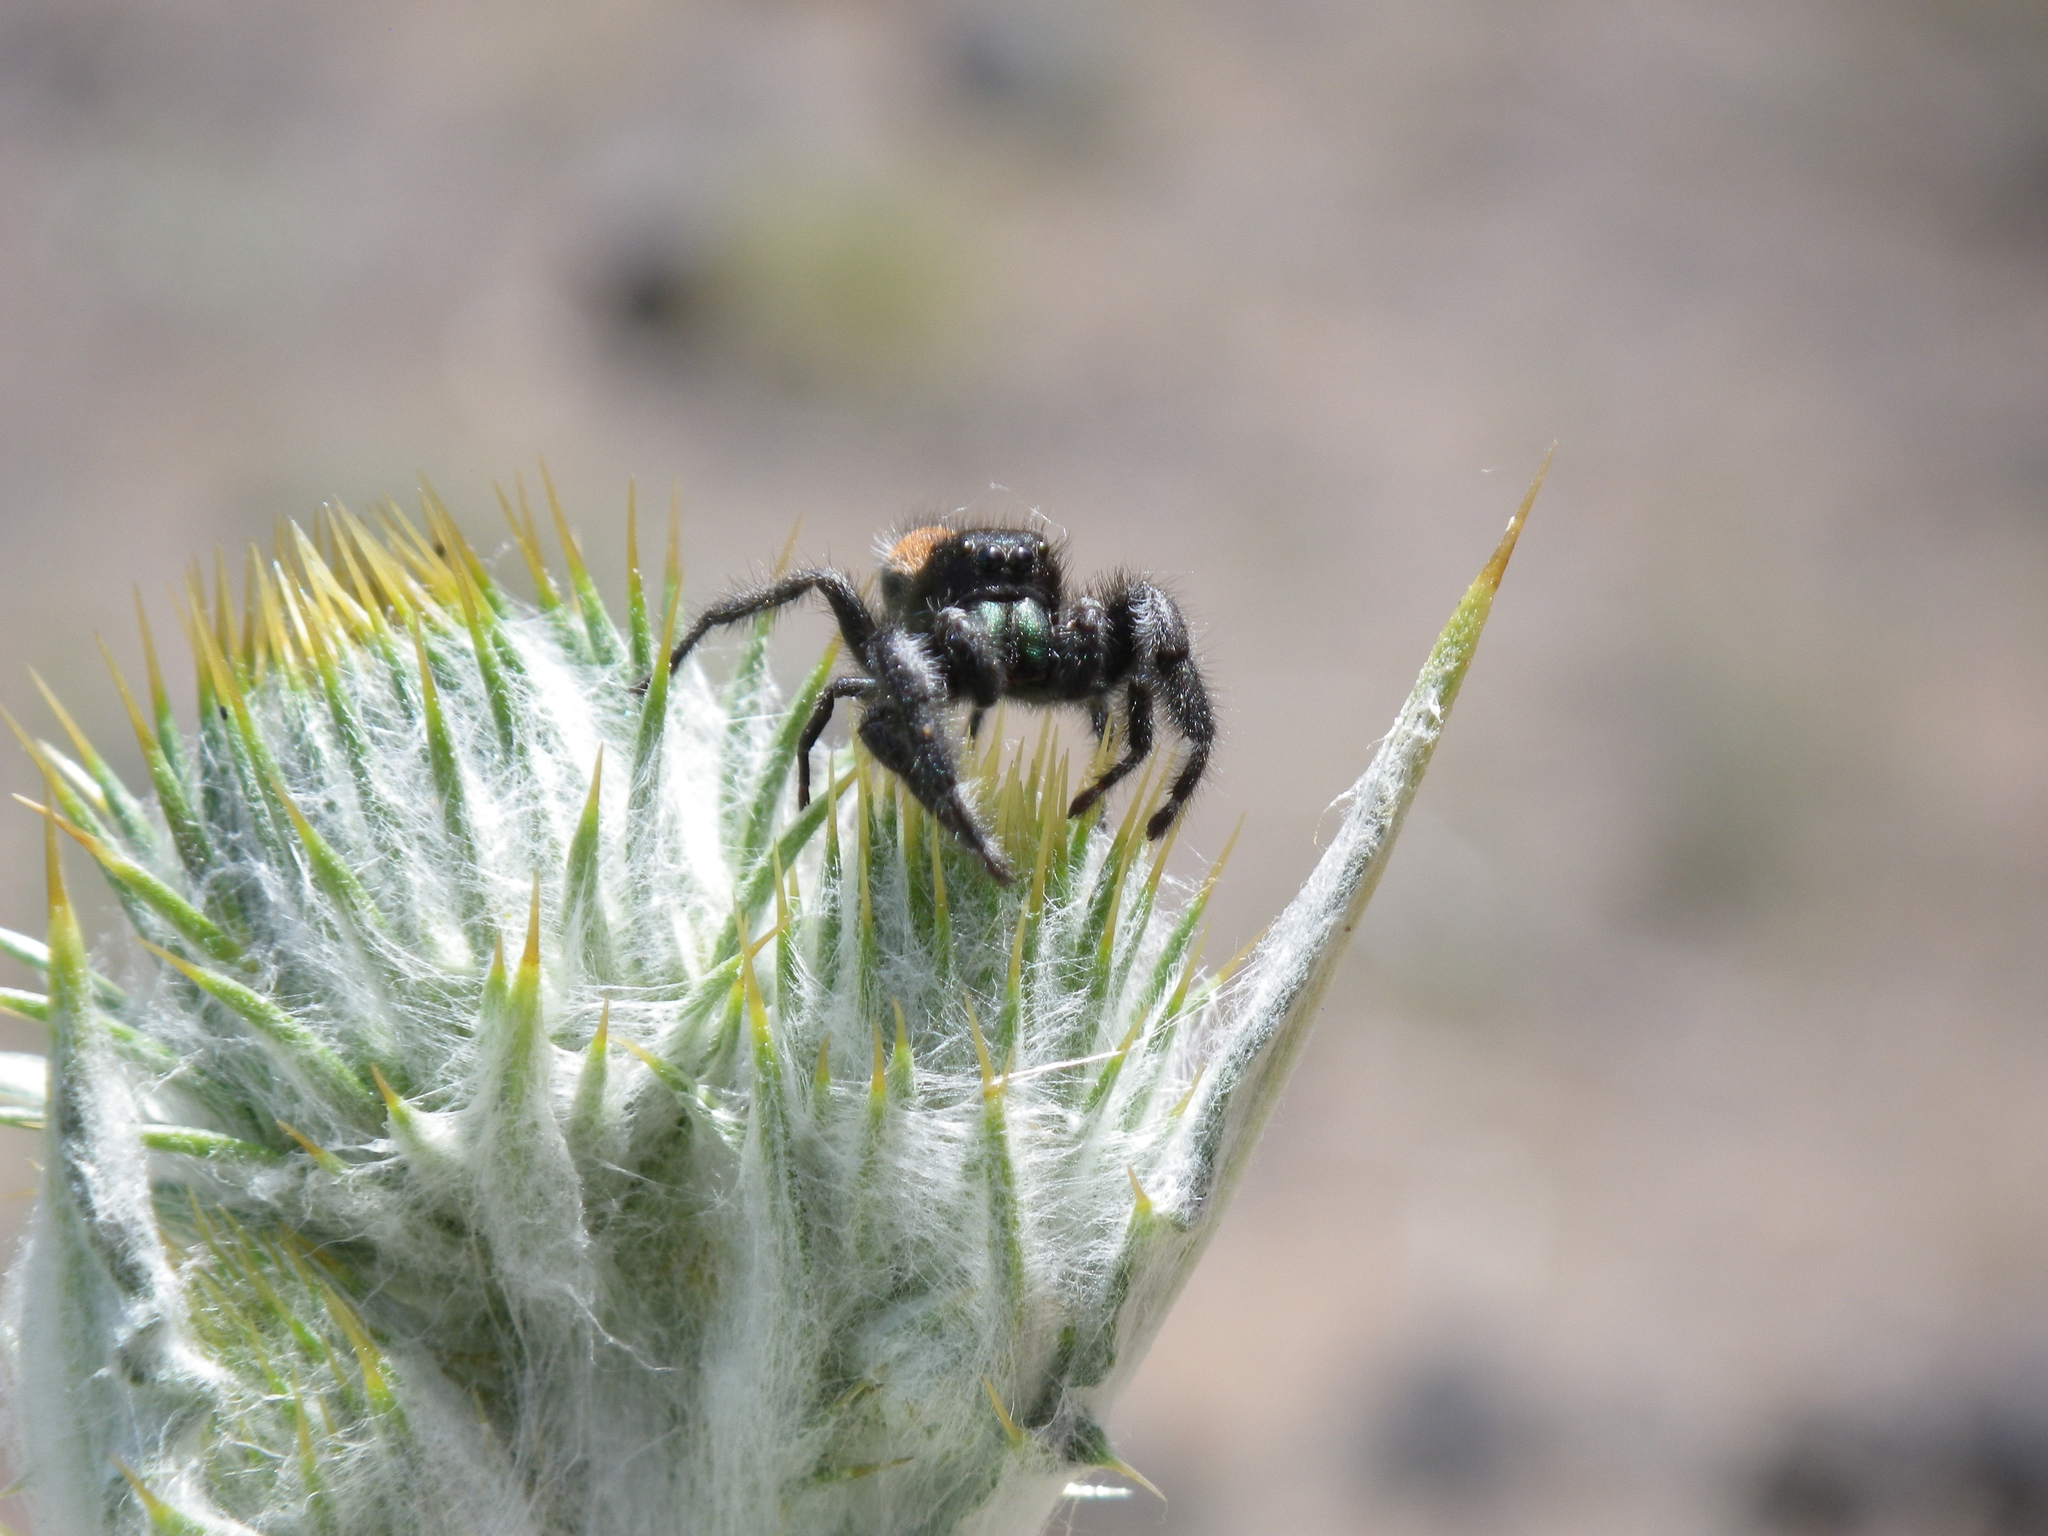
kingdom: Animalia
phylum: Arthropoda
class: Arachnida
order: Araneae
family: Salticidae
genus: Phidippus
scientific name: Phidippus johnsoni
